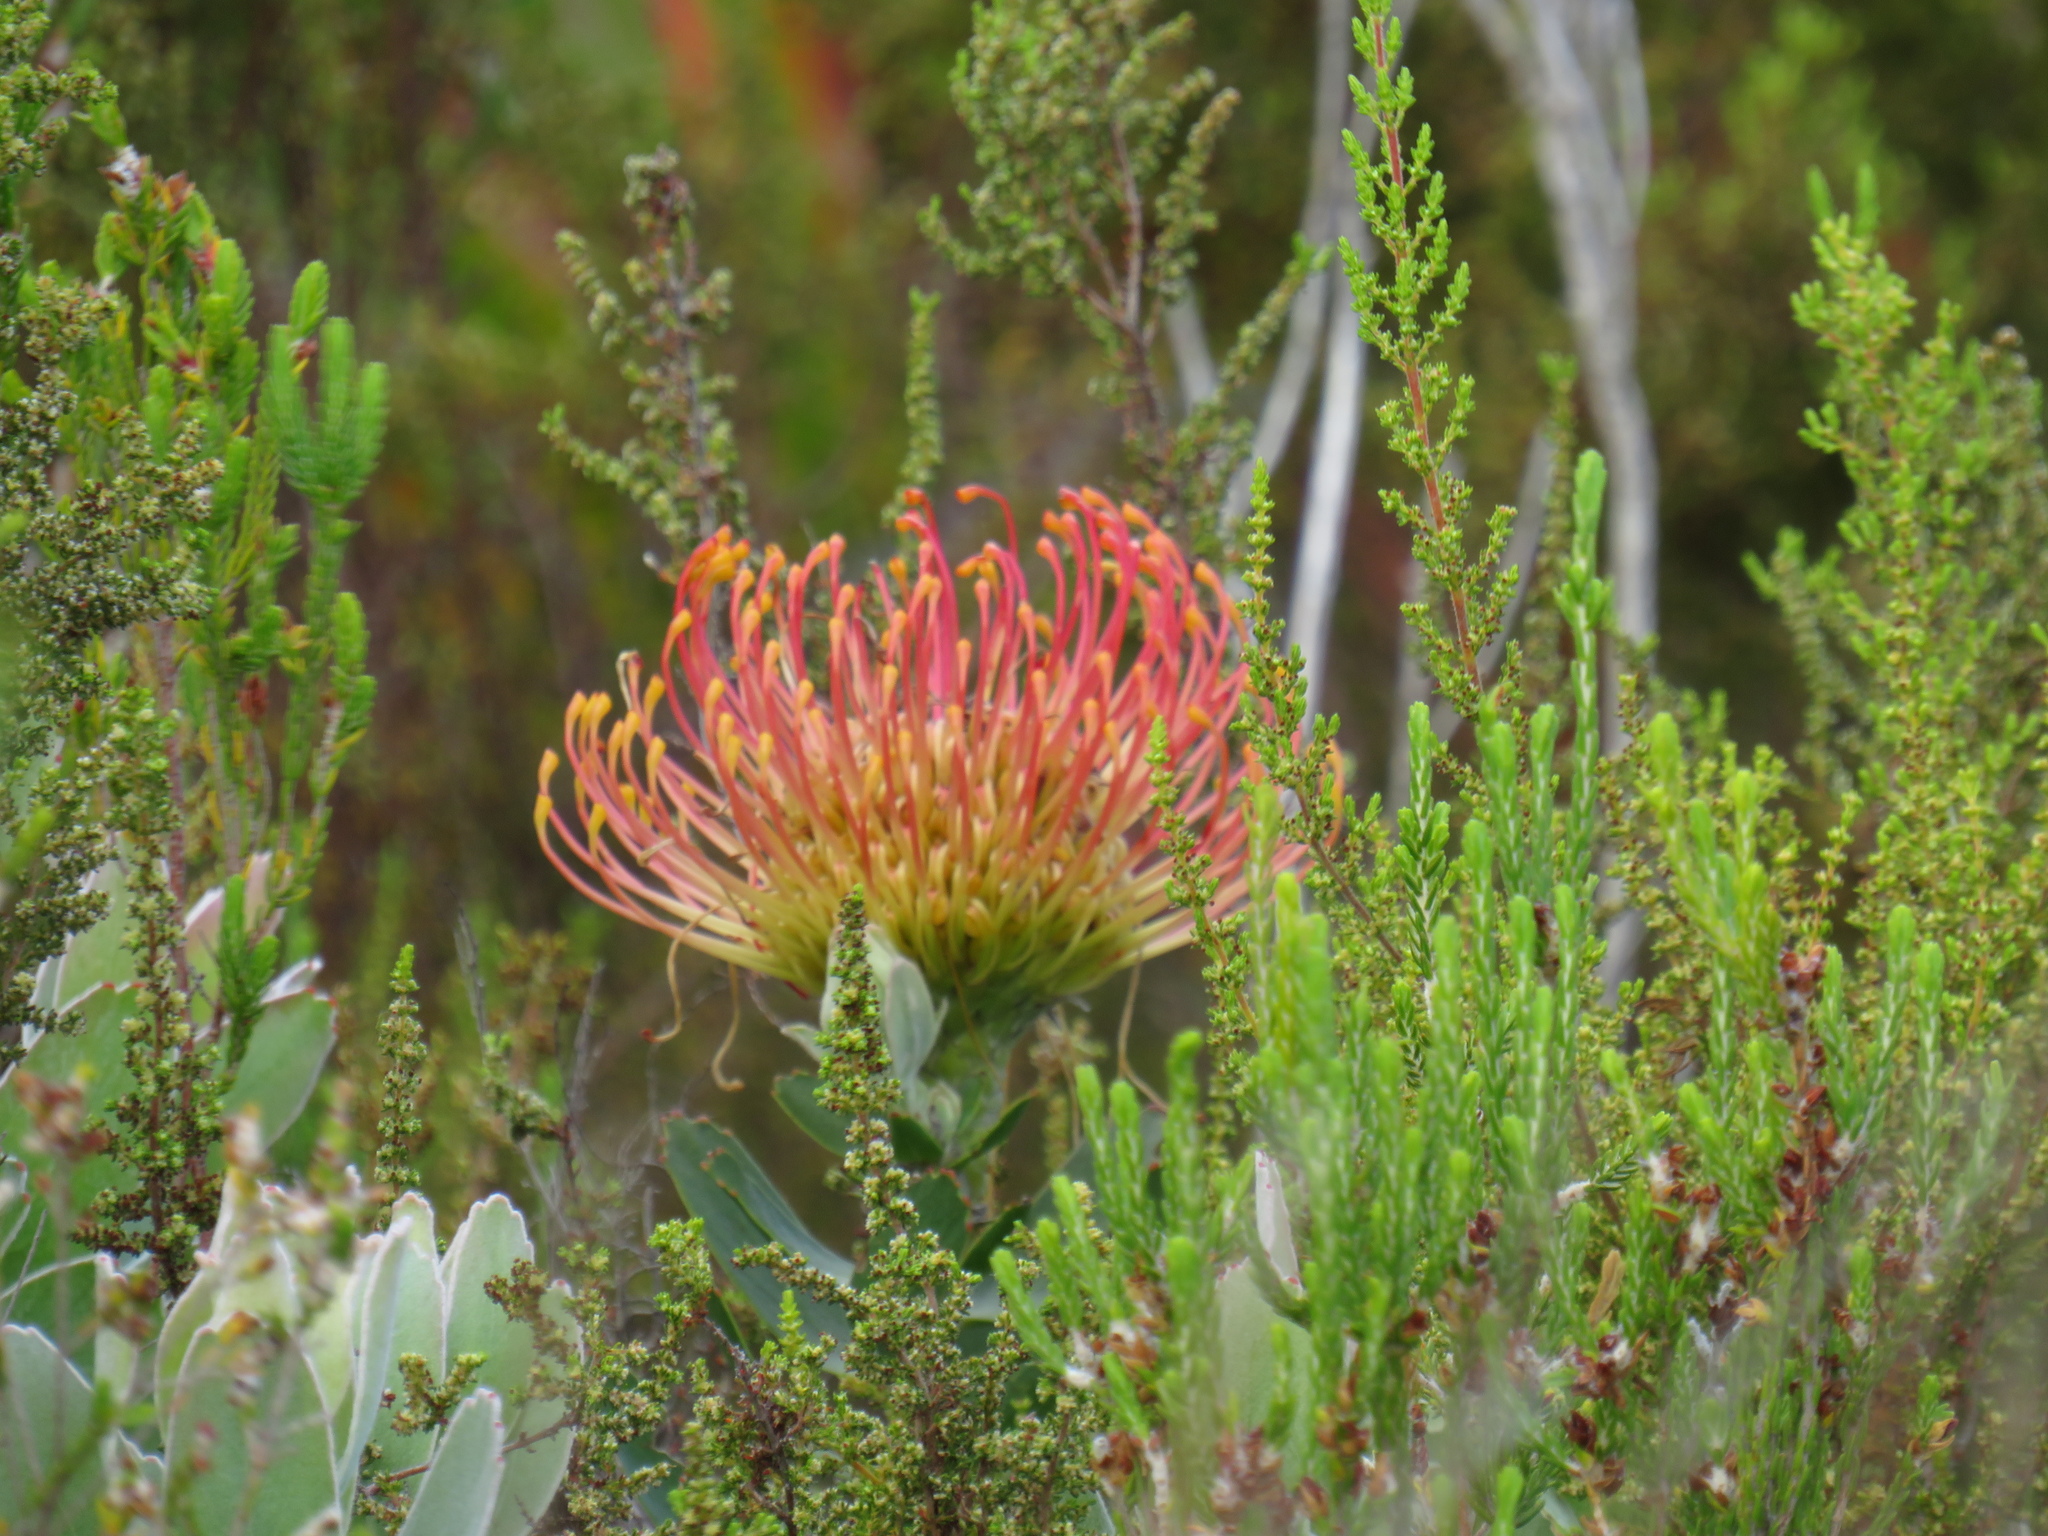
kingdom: Plantae
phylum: Tracheophyta
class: Magnoliopsida
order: Proteales
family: Proteaceae
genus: Leucospermum
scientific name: Leucospermum cordifolium
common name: Red pincushion-protea
